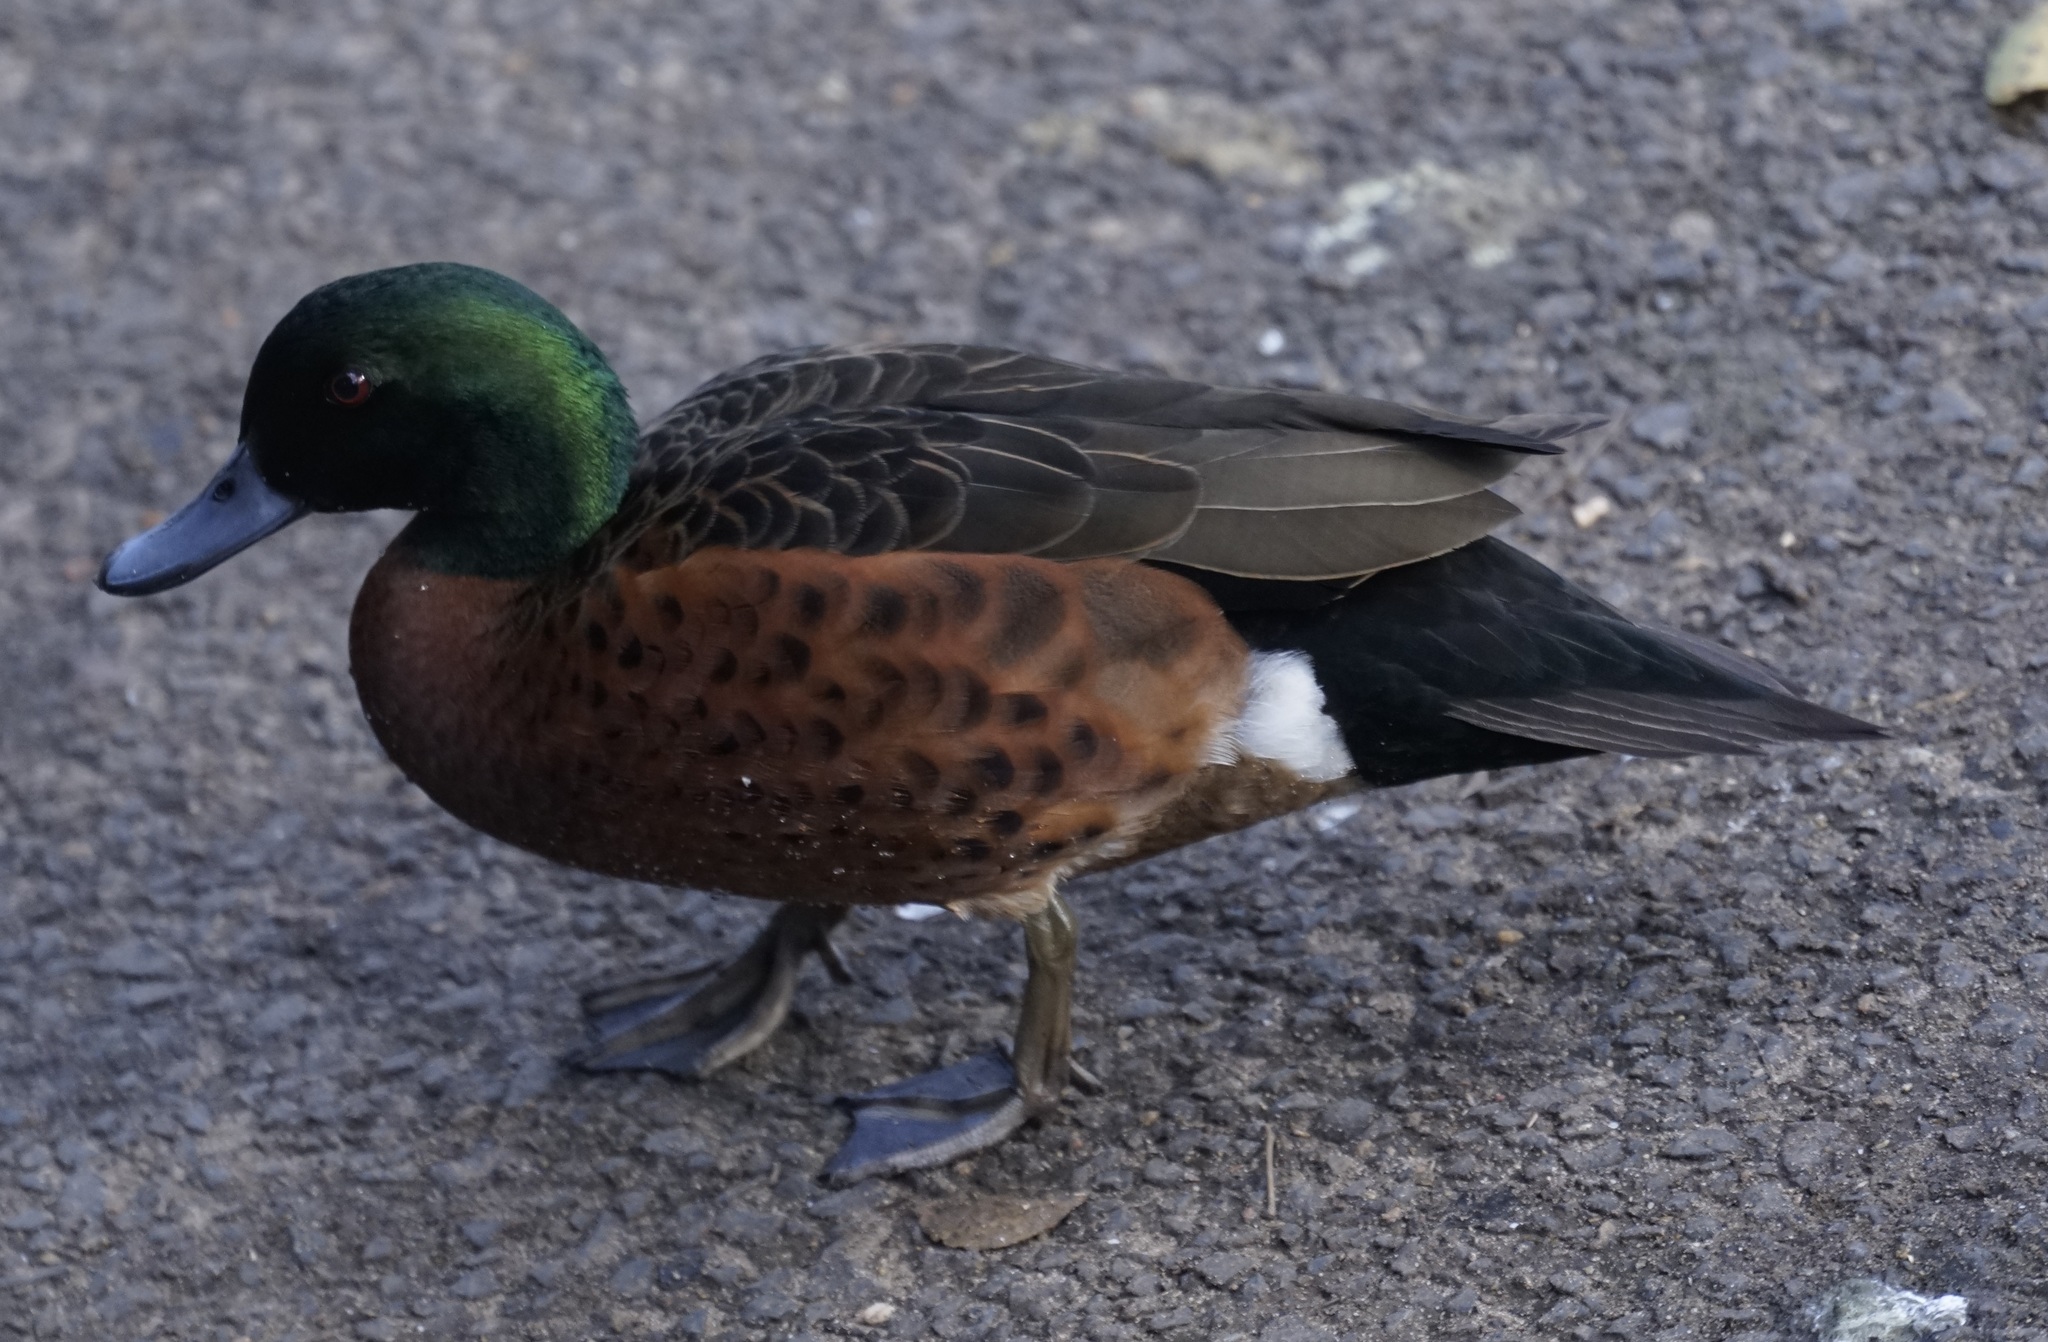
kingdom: Animalia
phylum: Chordata
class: Aves
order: Anseriformes
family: Anatidae
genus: Anas
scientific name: Anas castanea
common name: Chestnut teal
